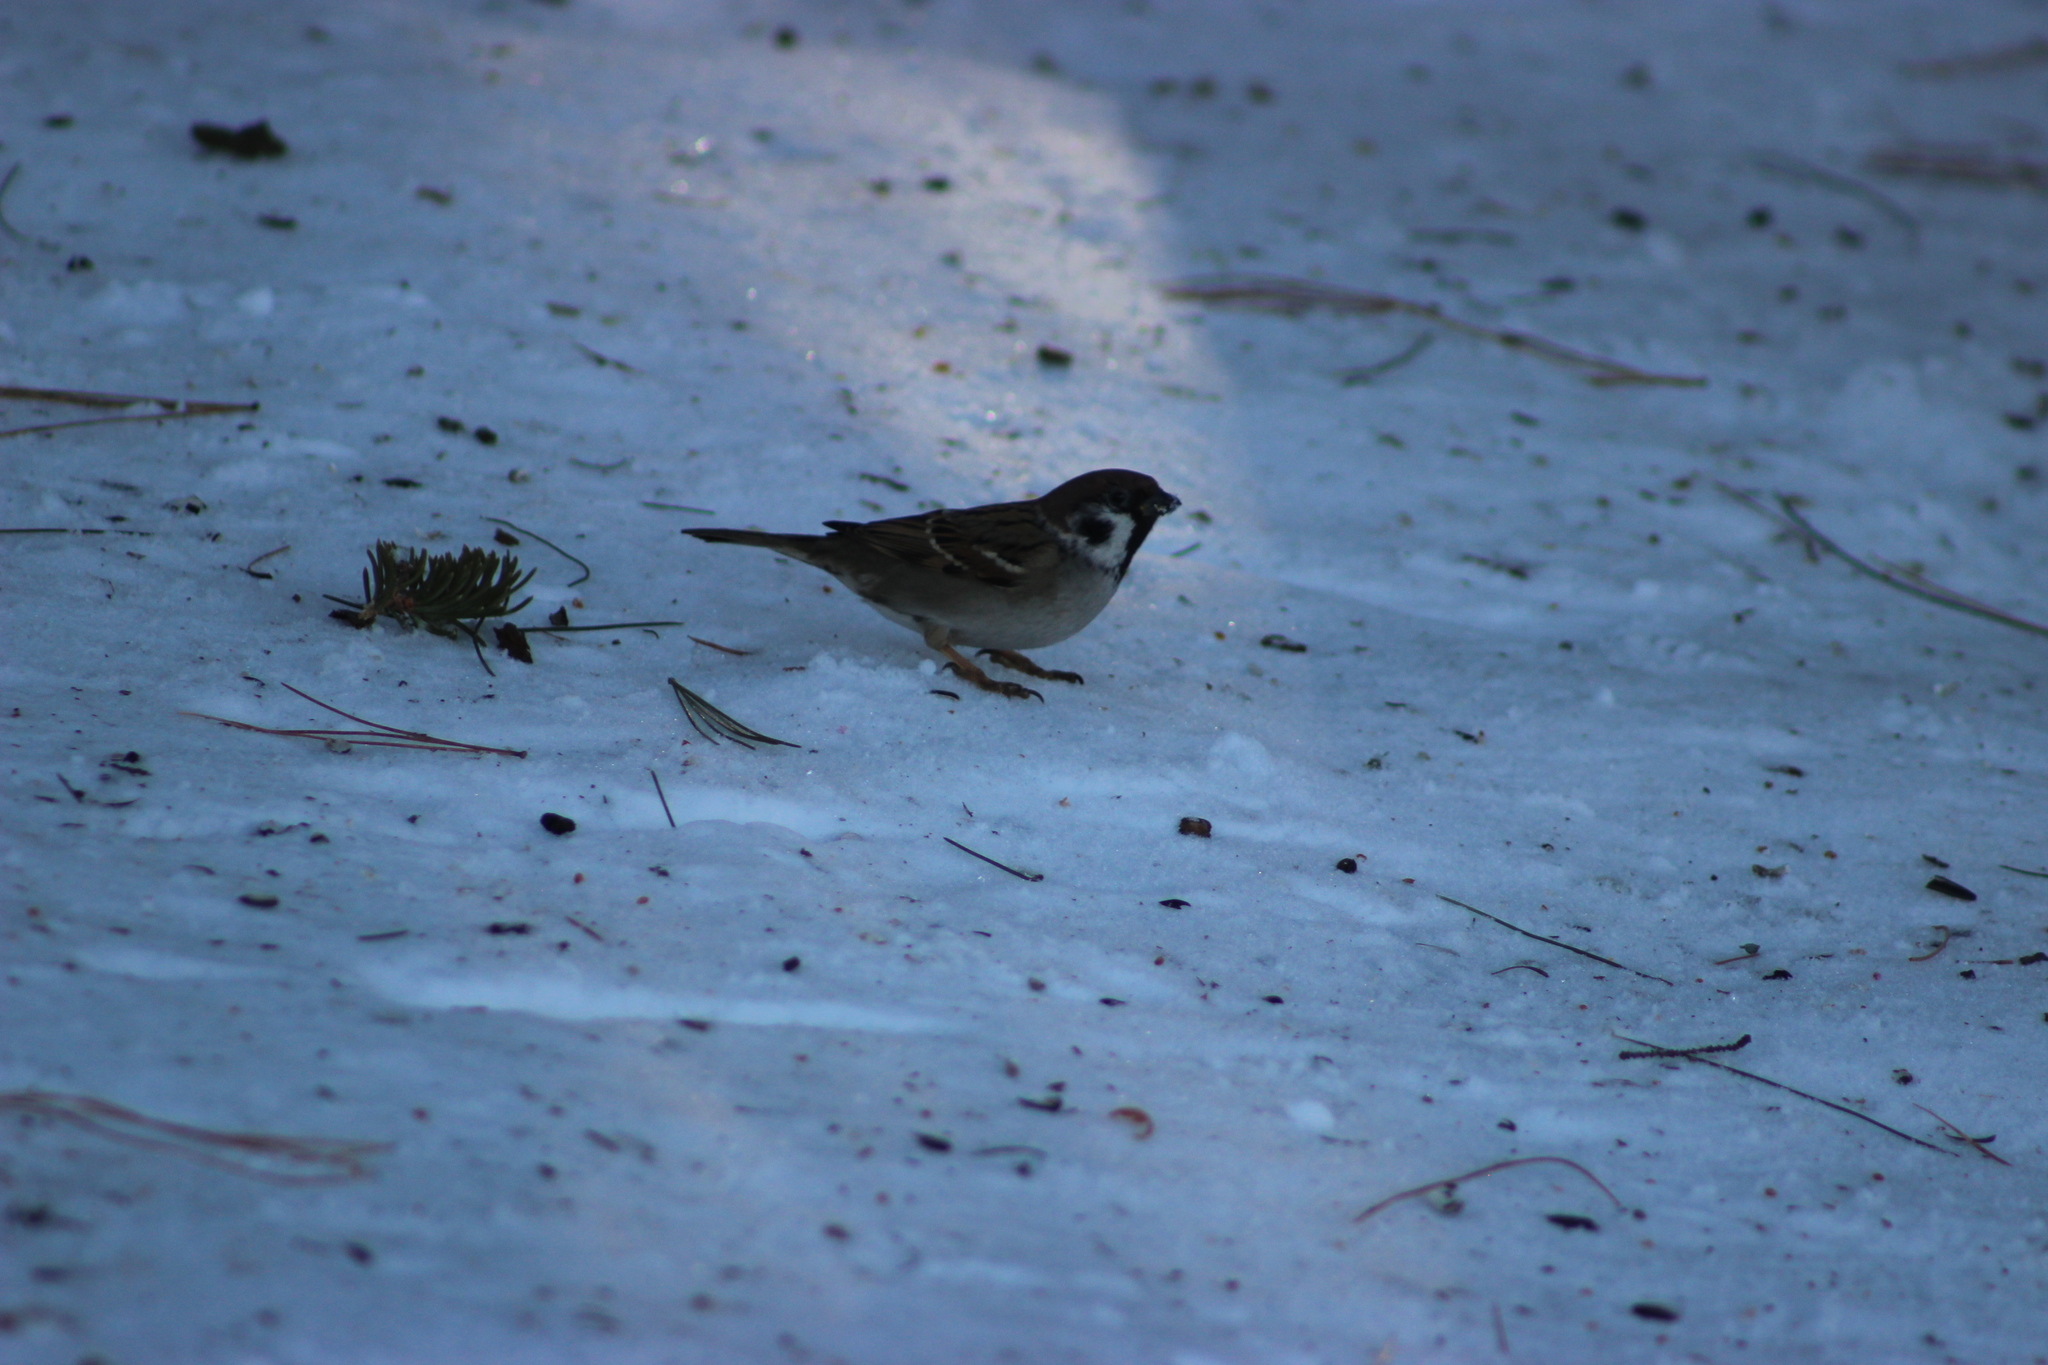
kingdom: Animalia
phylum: Chordata
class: Aves
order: Passeriformes
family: Passeridae
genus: Passer
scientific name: Passer montanus
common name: Eurasian tree sparrow
